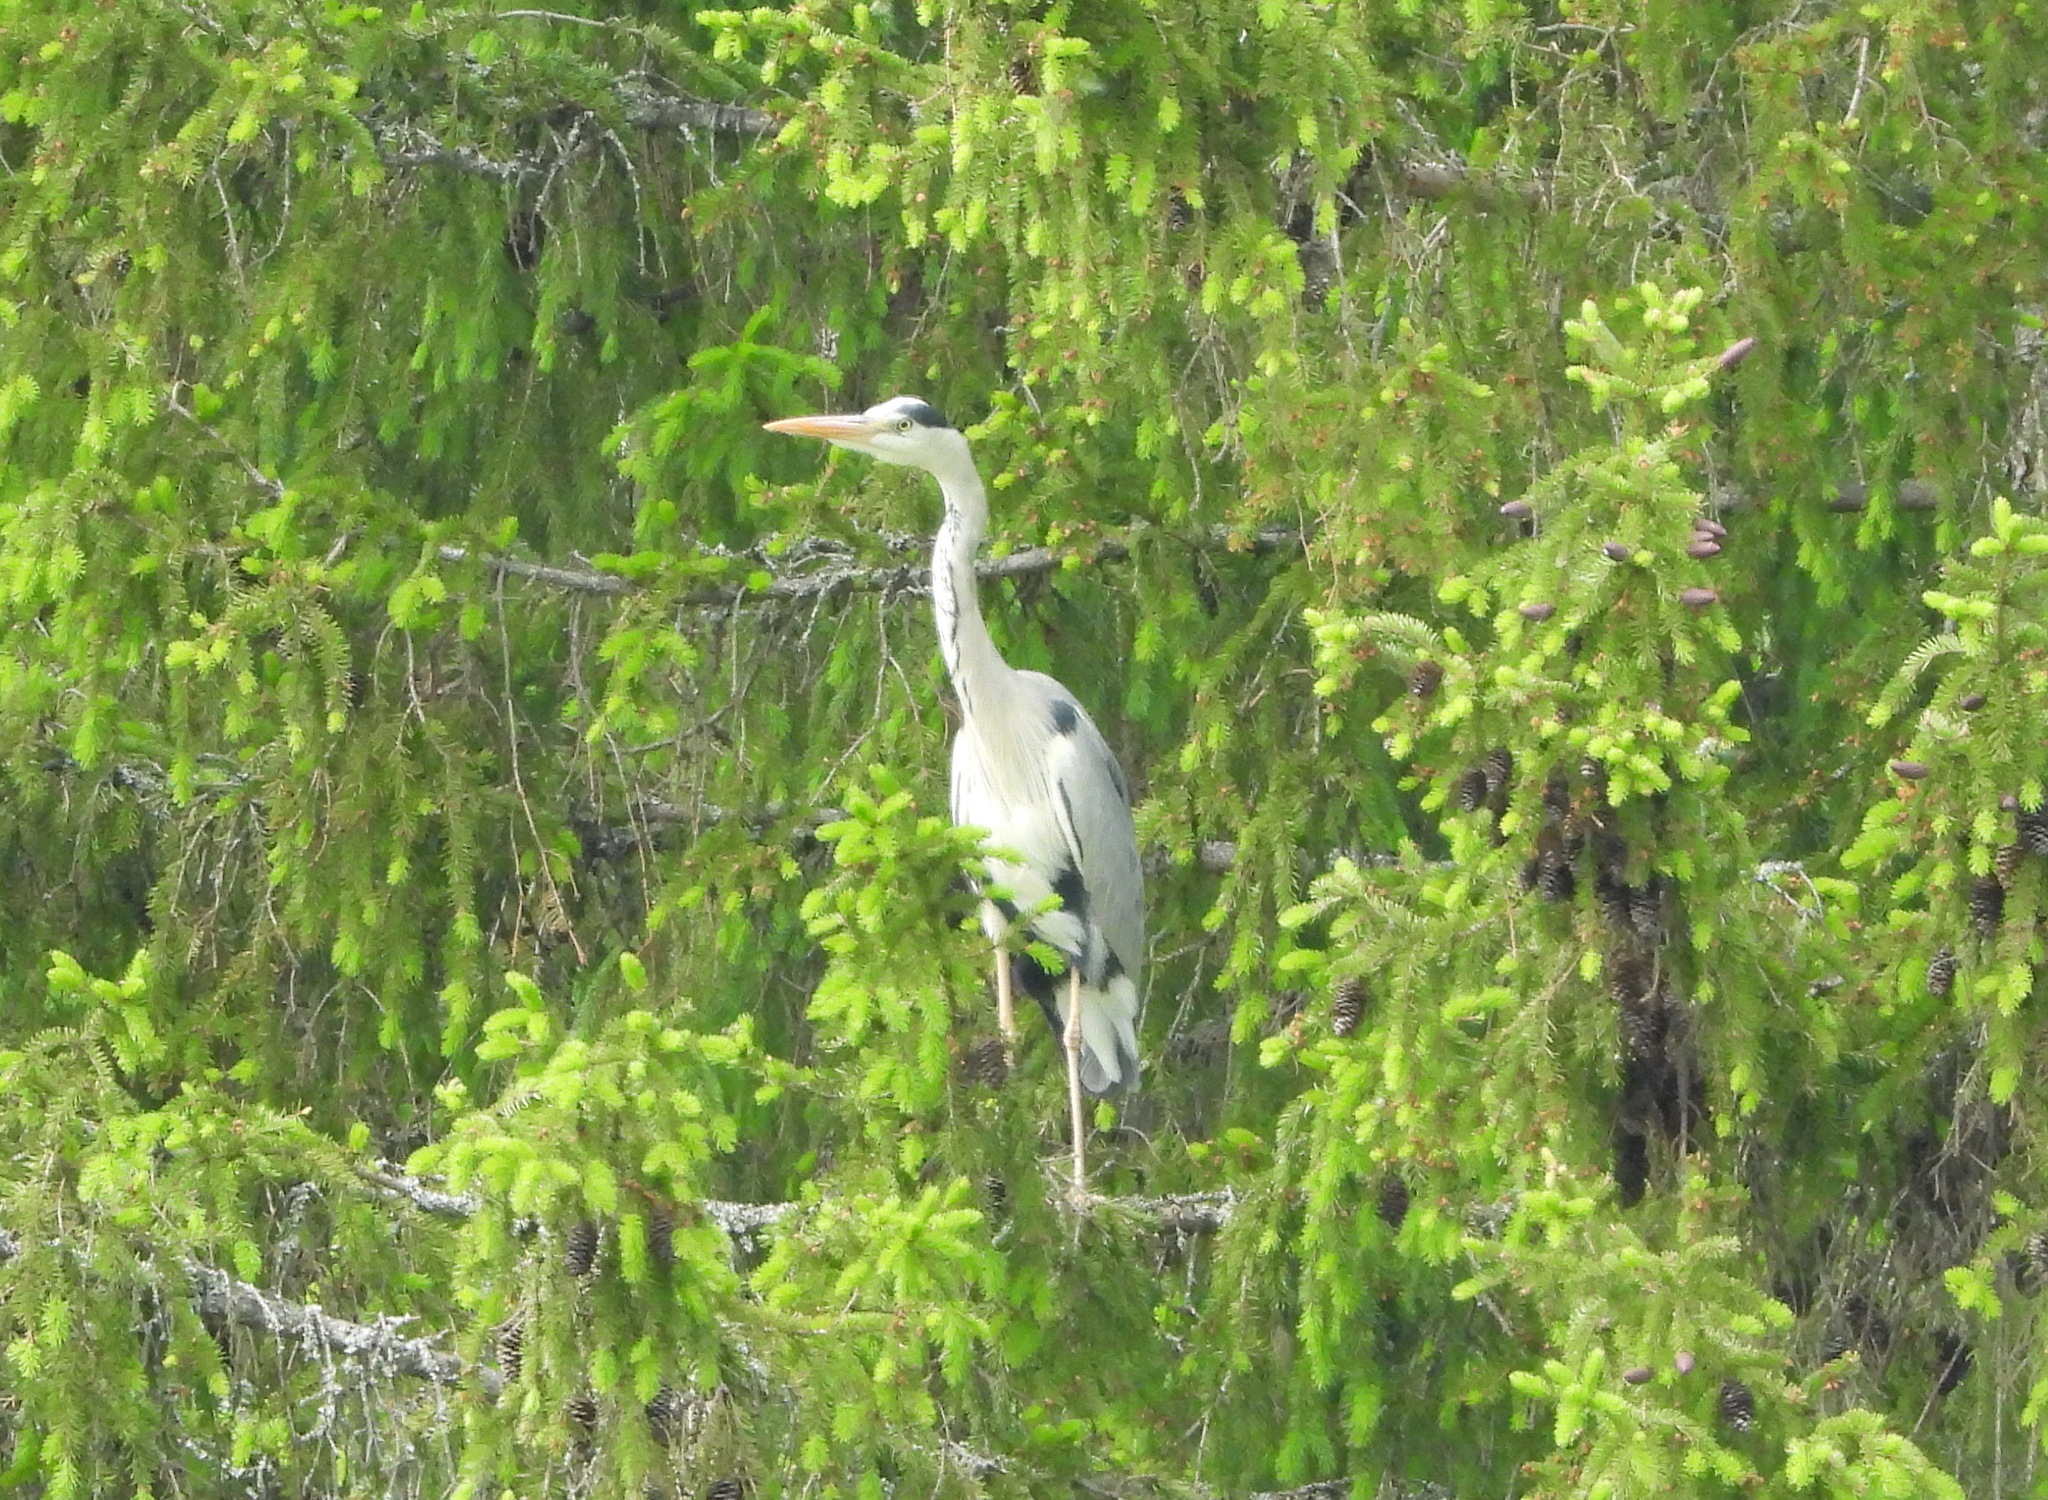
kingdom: Animalia
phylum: Chordata
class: Aves
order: Pelecaniformes
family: Ardeidae
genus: Ardea
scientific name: Ardea cinerea
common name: Grey heron
